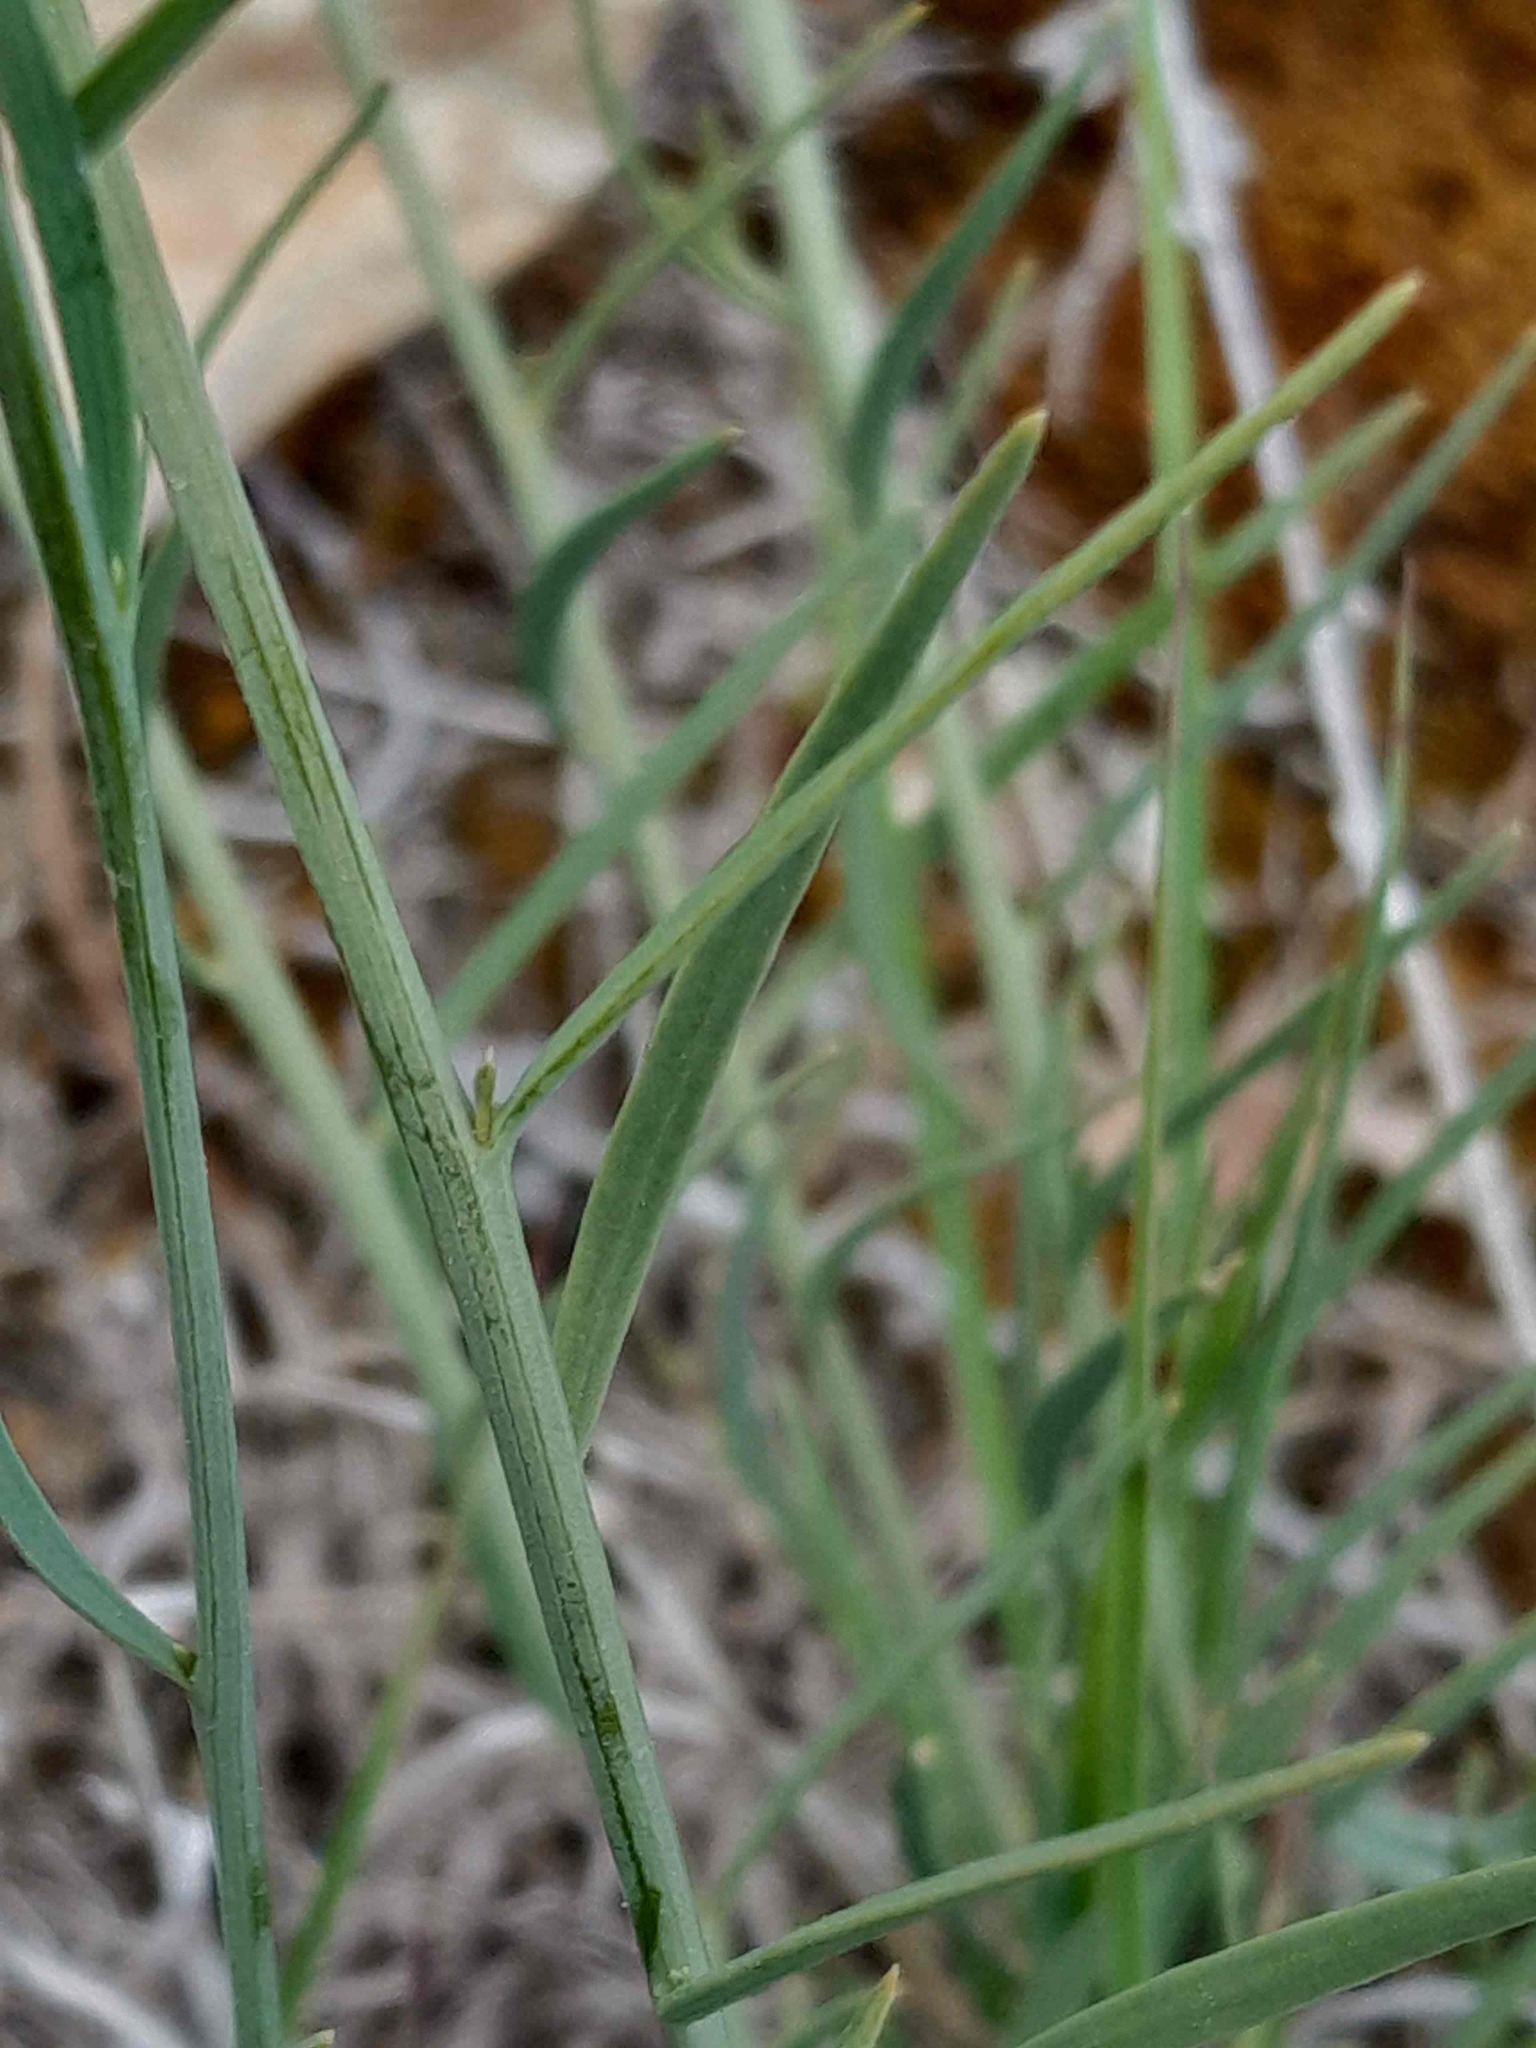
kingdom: Plantae
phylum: Tracheophyta
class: Magnoliopsida
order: Santalales
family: Thesiaceae
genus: Thesium
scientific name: Thesium divaricatum
